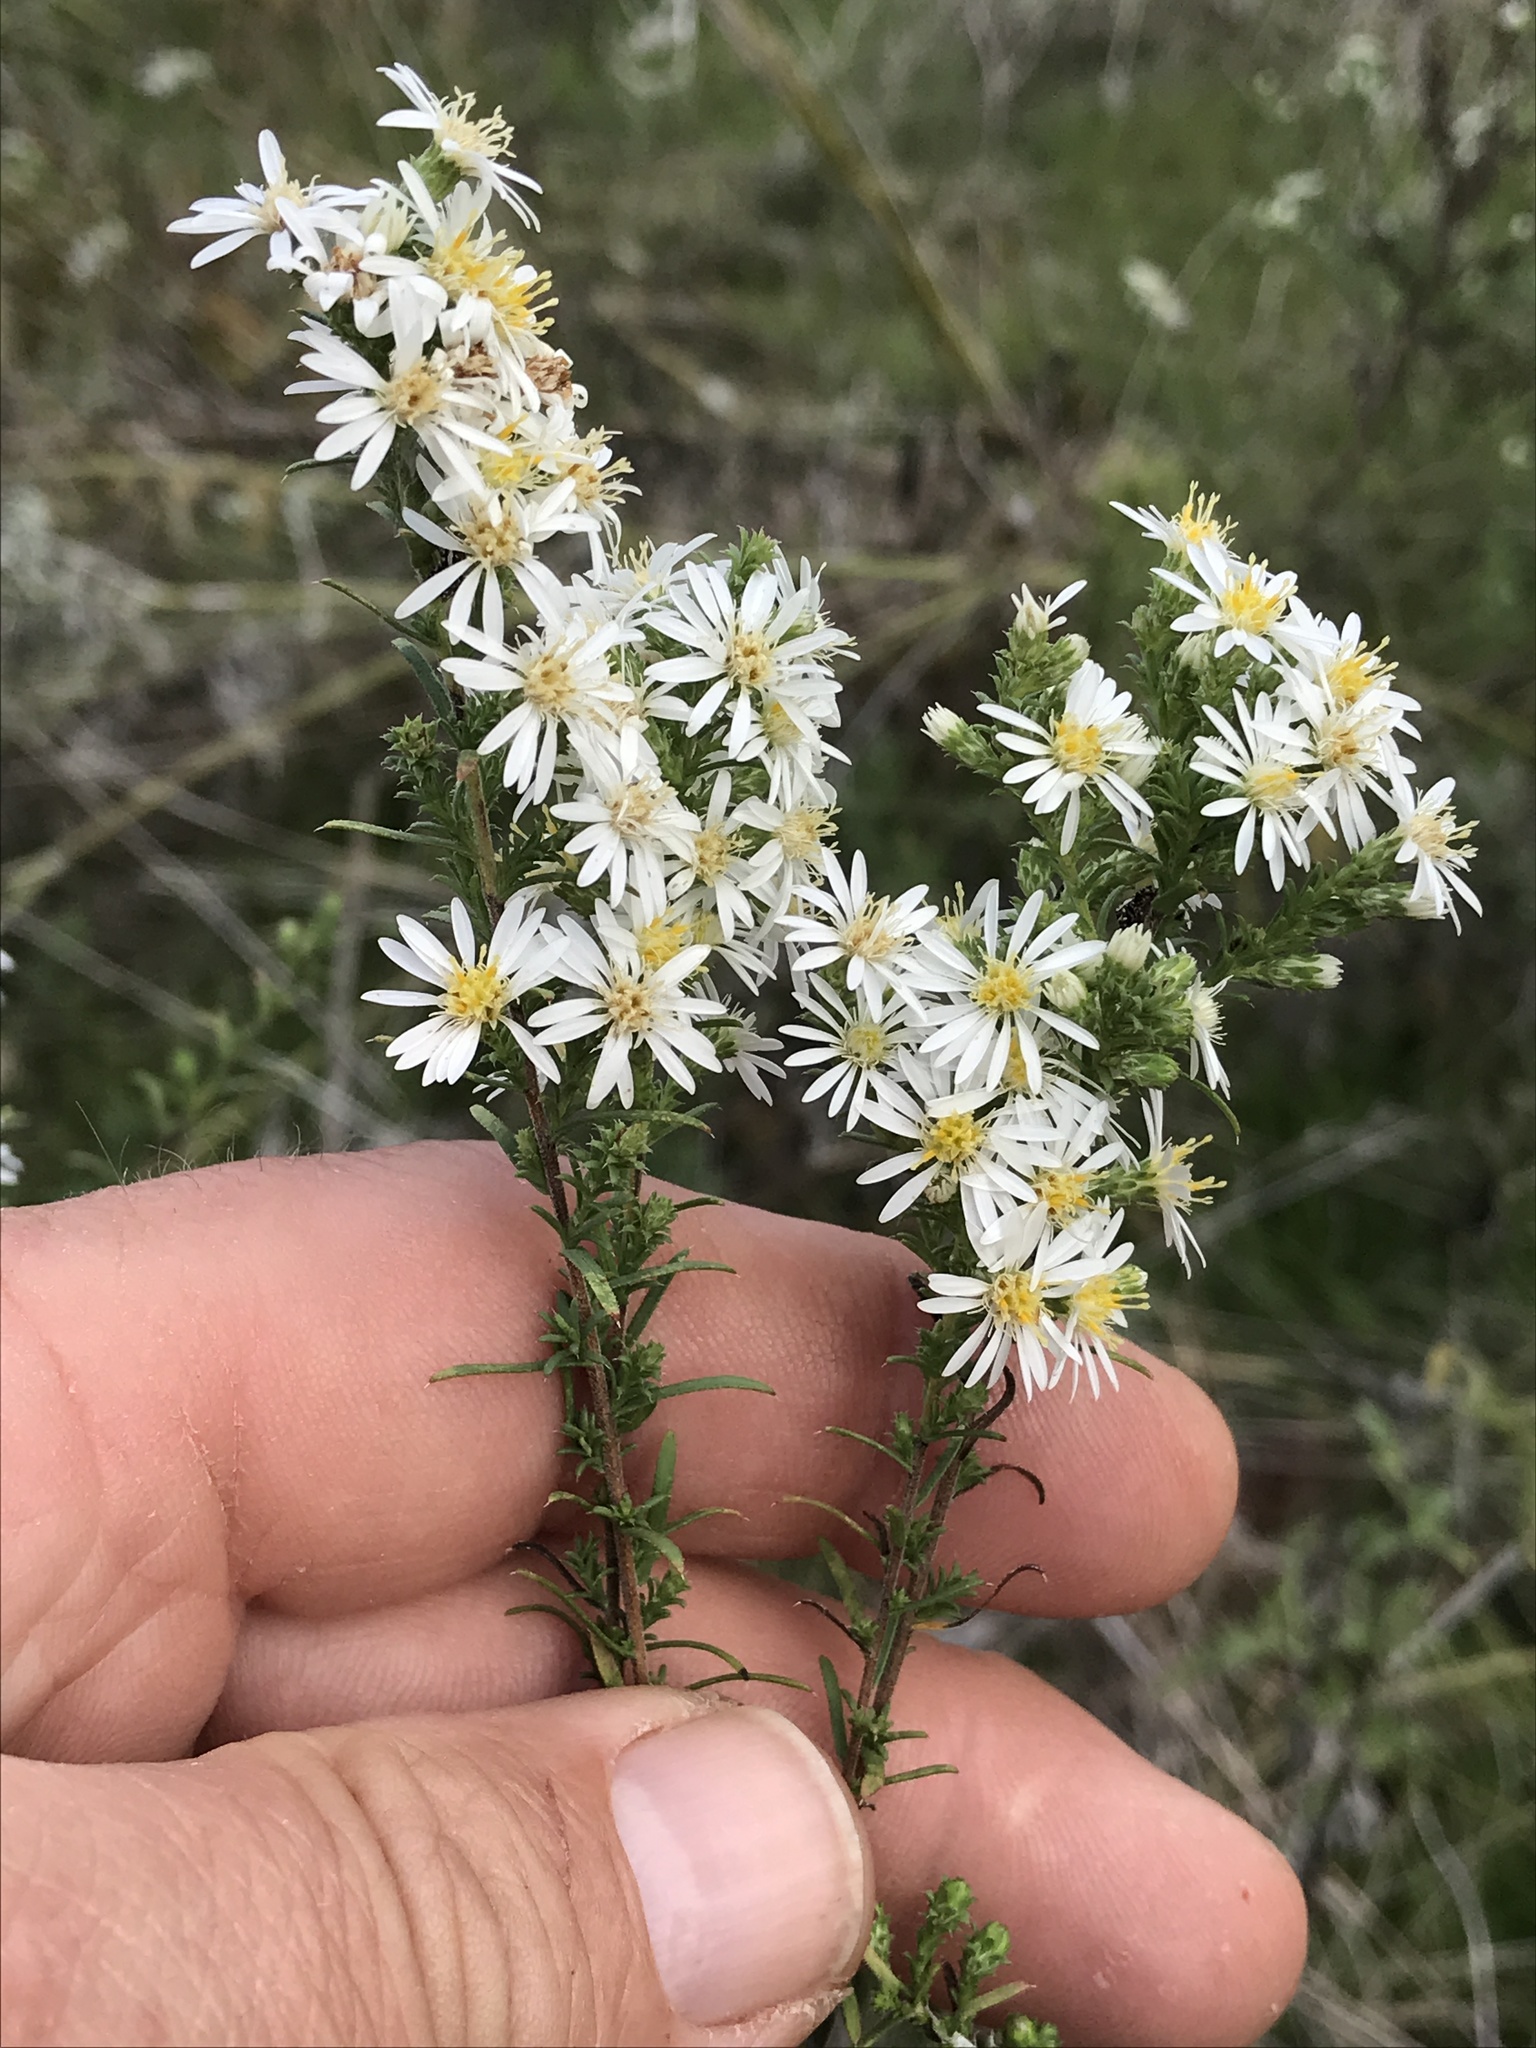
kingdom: Plantae
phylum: Tracheophyta
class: Magnoliopsida
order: Asterales
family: Asteraceae
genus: Symphyotrichum
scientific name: Symphyotrichum ericoides
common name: Heath aster
